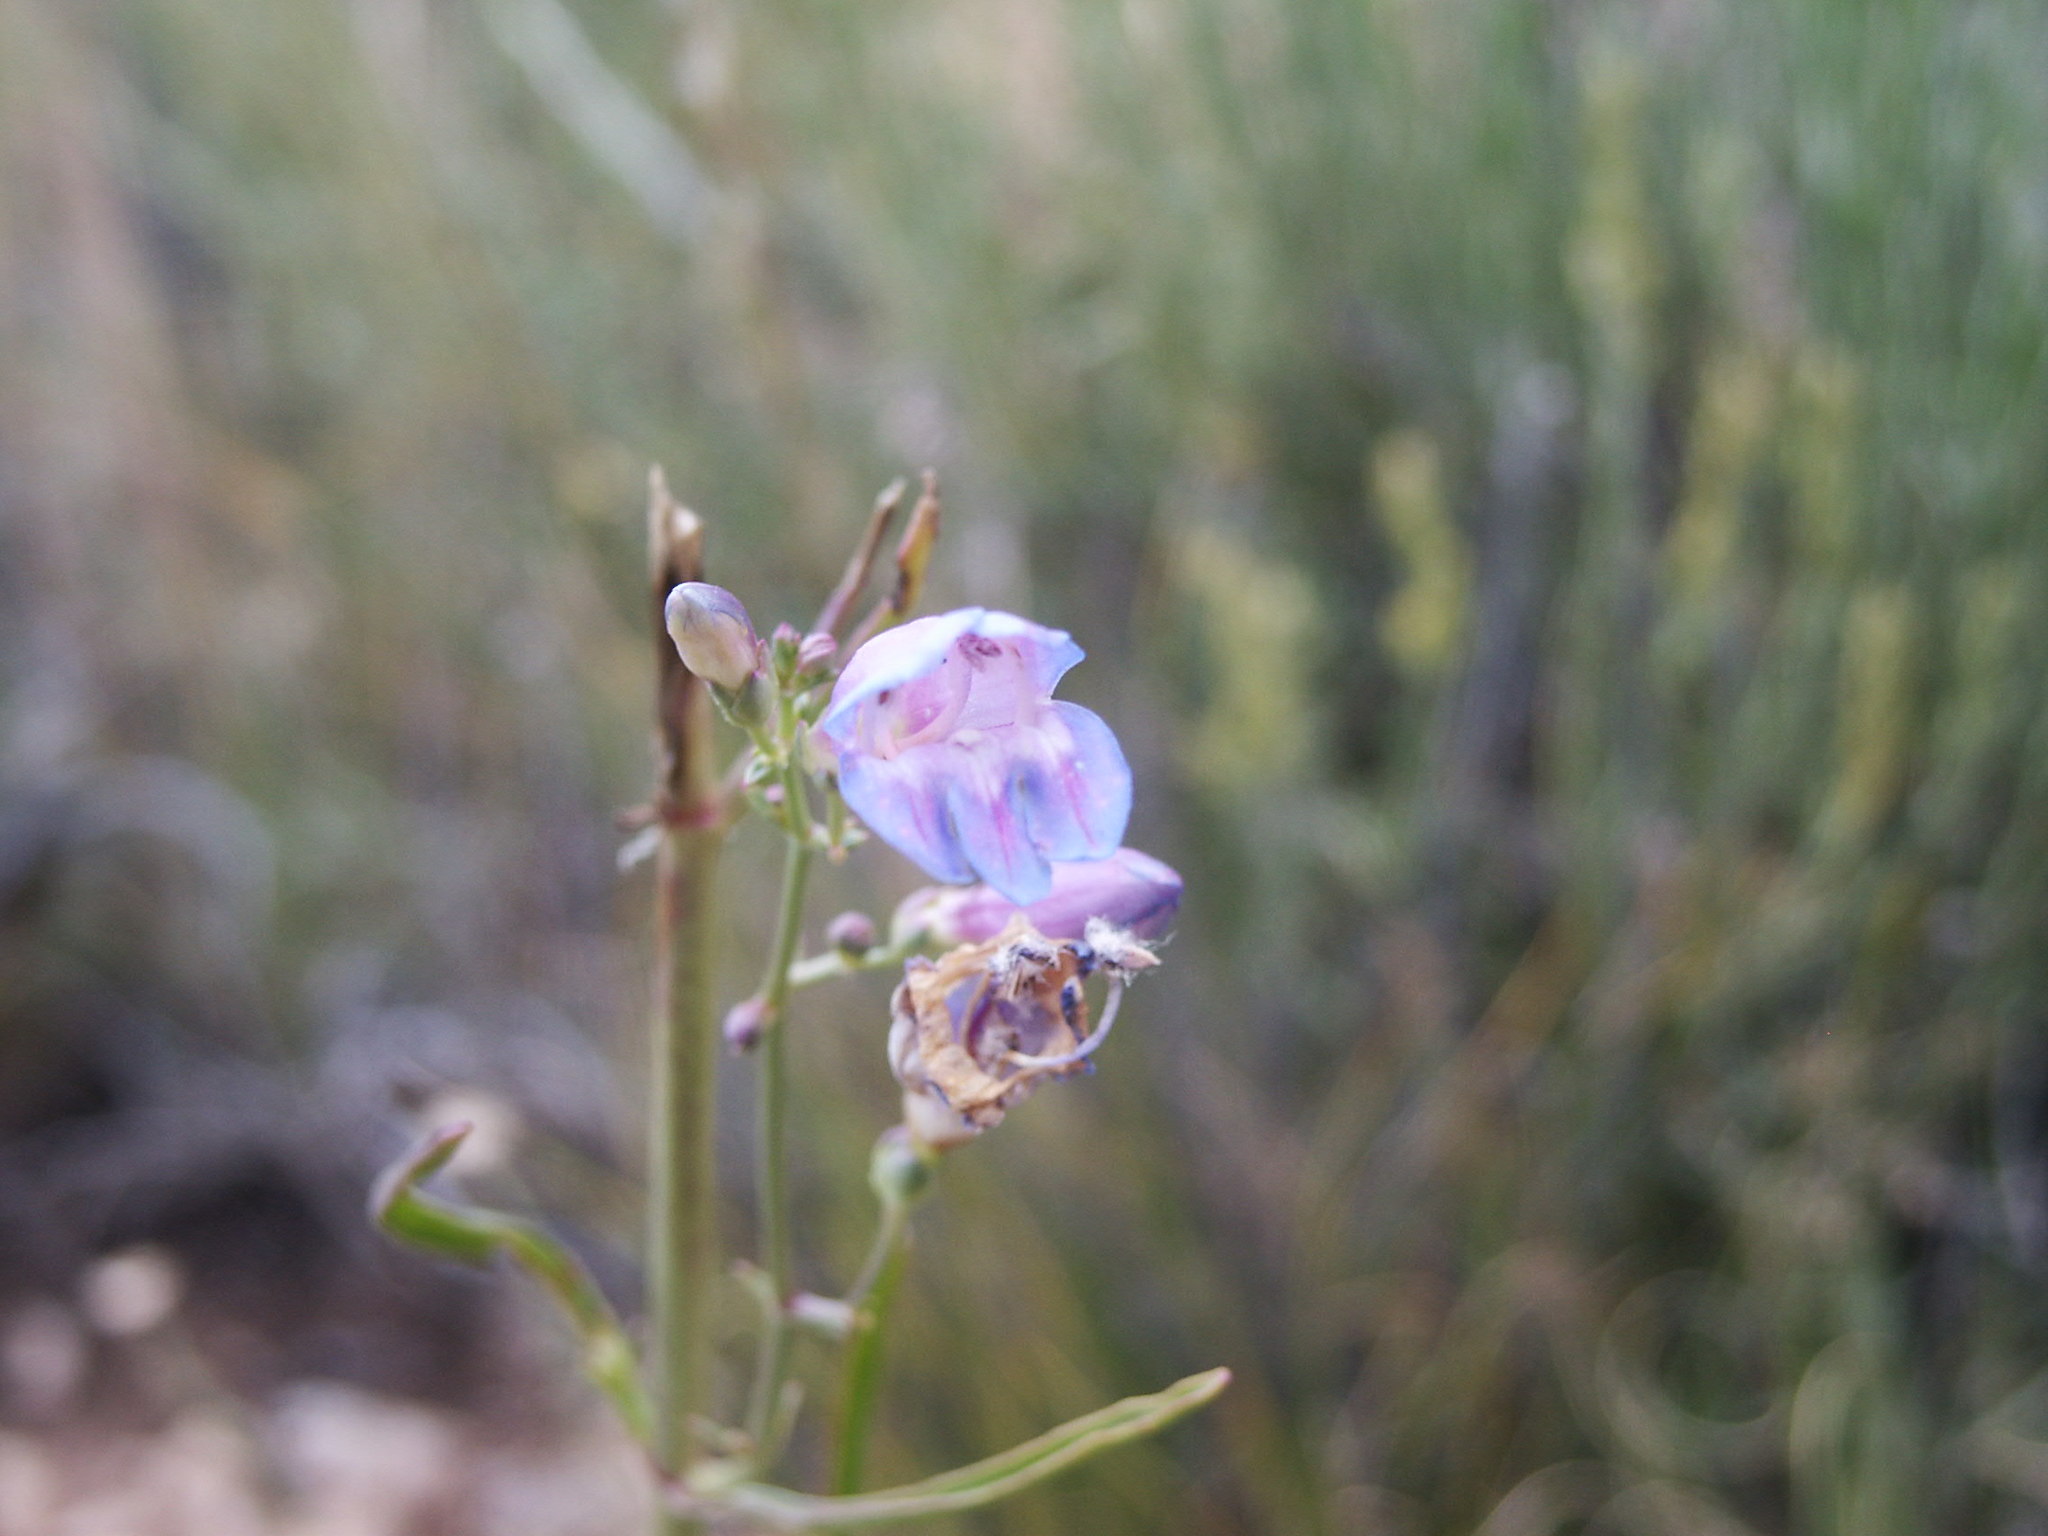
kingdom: Plantae
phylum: Tracheophyta
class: Magnoliopsida
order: Lamiales
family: Plantaginaceae
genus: Penstemon
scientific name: Penstemon comarrhenus
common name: Dusty penstemon
